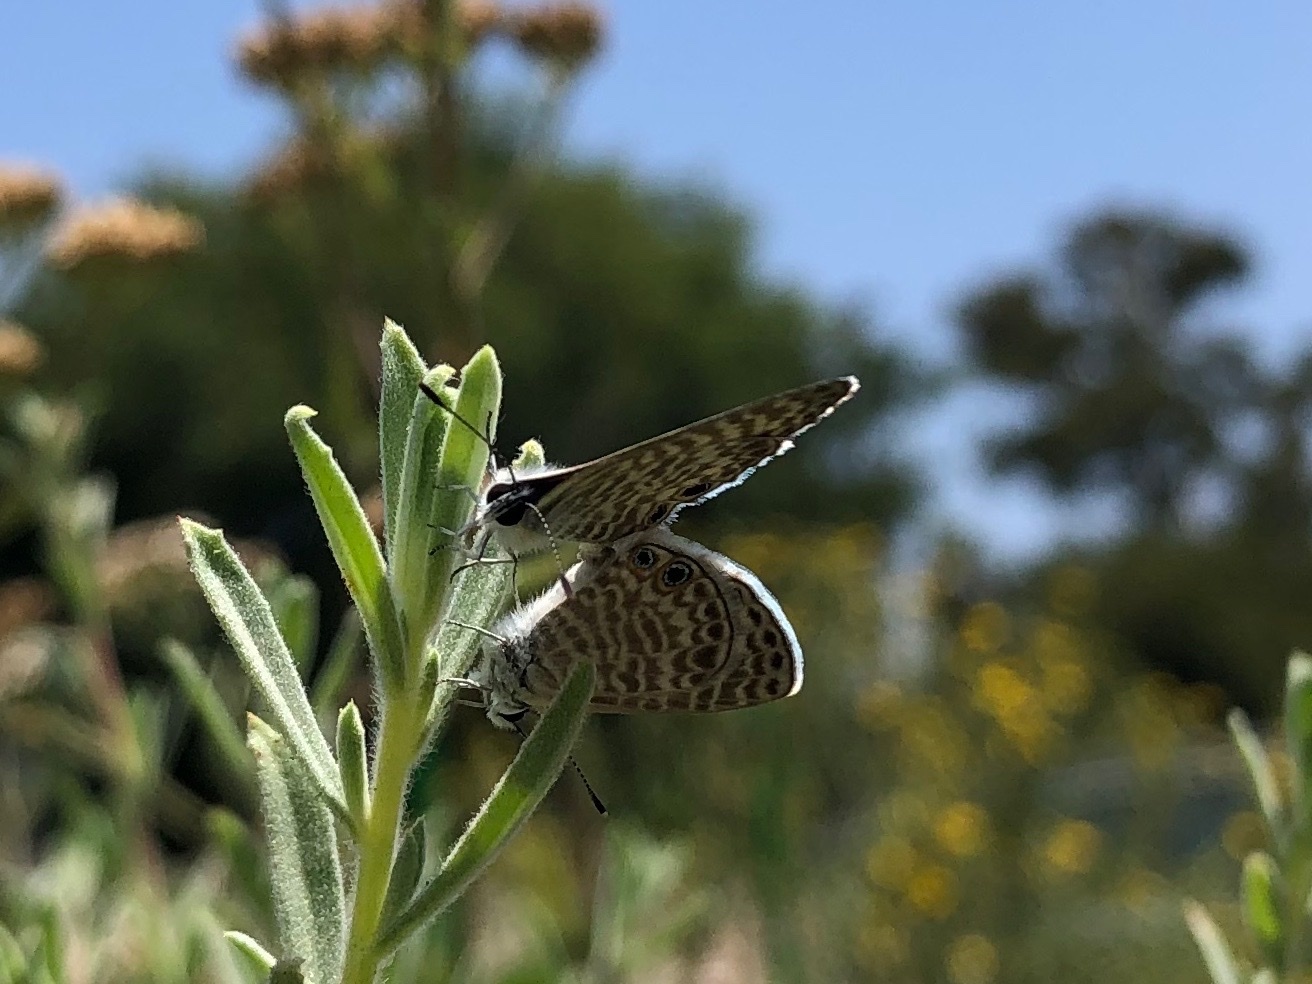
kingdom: Animalia
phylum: Arthropoda
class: Insecta
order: Lepidoptera
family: Lycaenidae
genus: Leptotes
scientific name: Leptotes marina
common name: Marine blue
